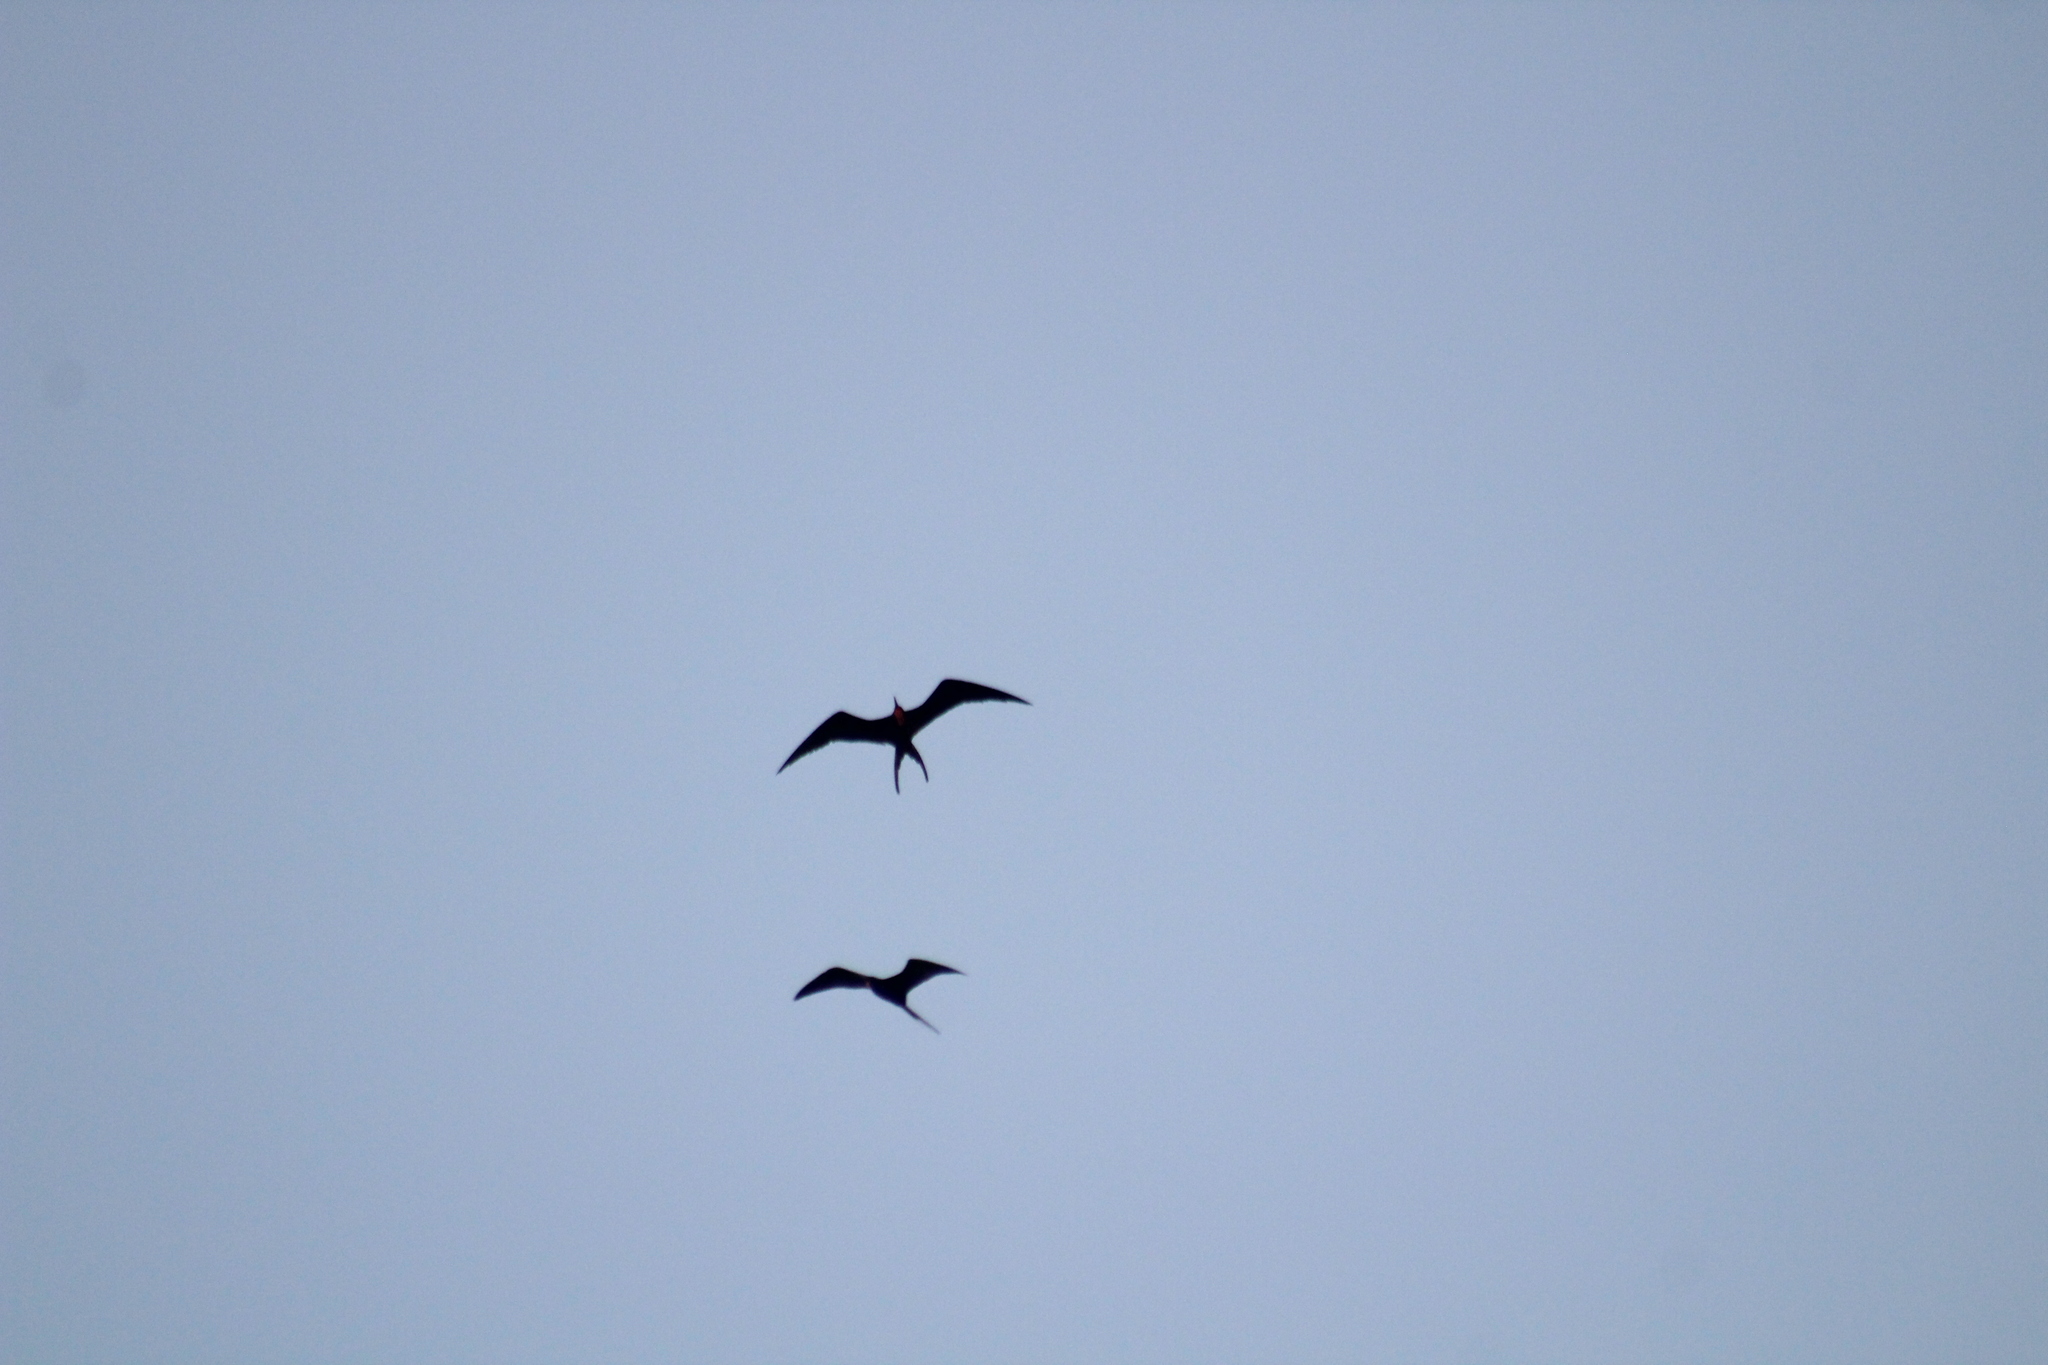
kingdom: Animalia
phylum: Chordata
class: Aves
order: Suliformes
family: Fregatidae
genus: Fregata
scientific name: Fregata magnificens
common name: Magnificent frigatebird
